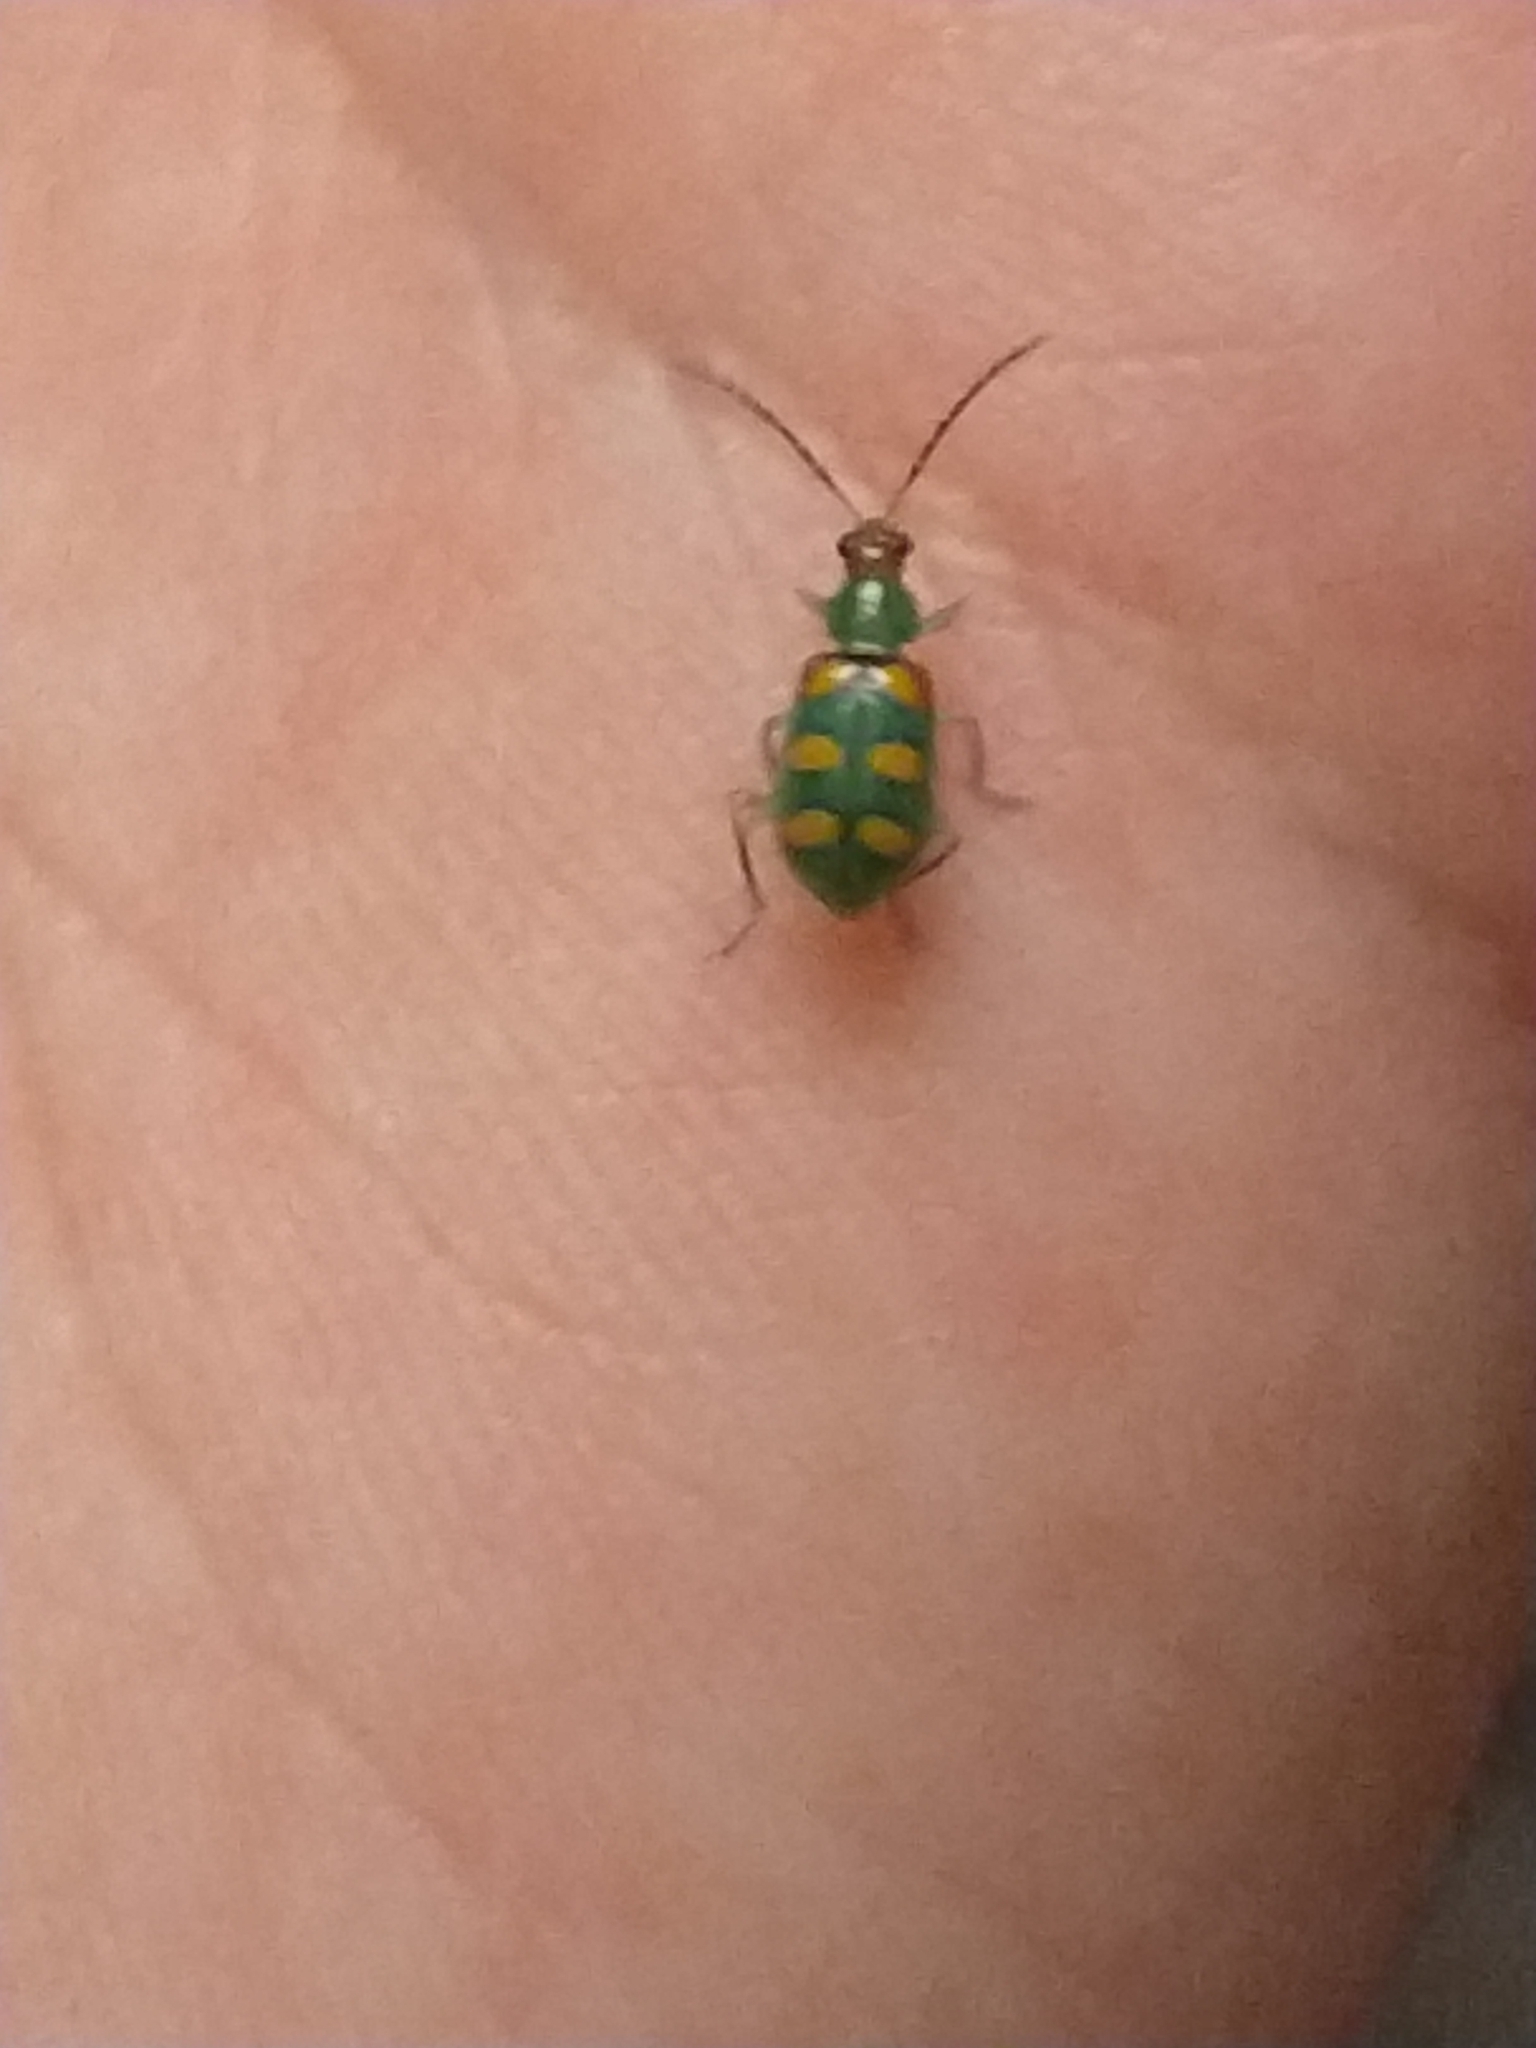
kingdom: Animalia
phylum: Arthropoda
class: Insecta
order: Coleoptera
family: Chrysomelidae
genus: Diabrotica
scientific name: Diabrotica speciosa
